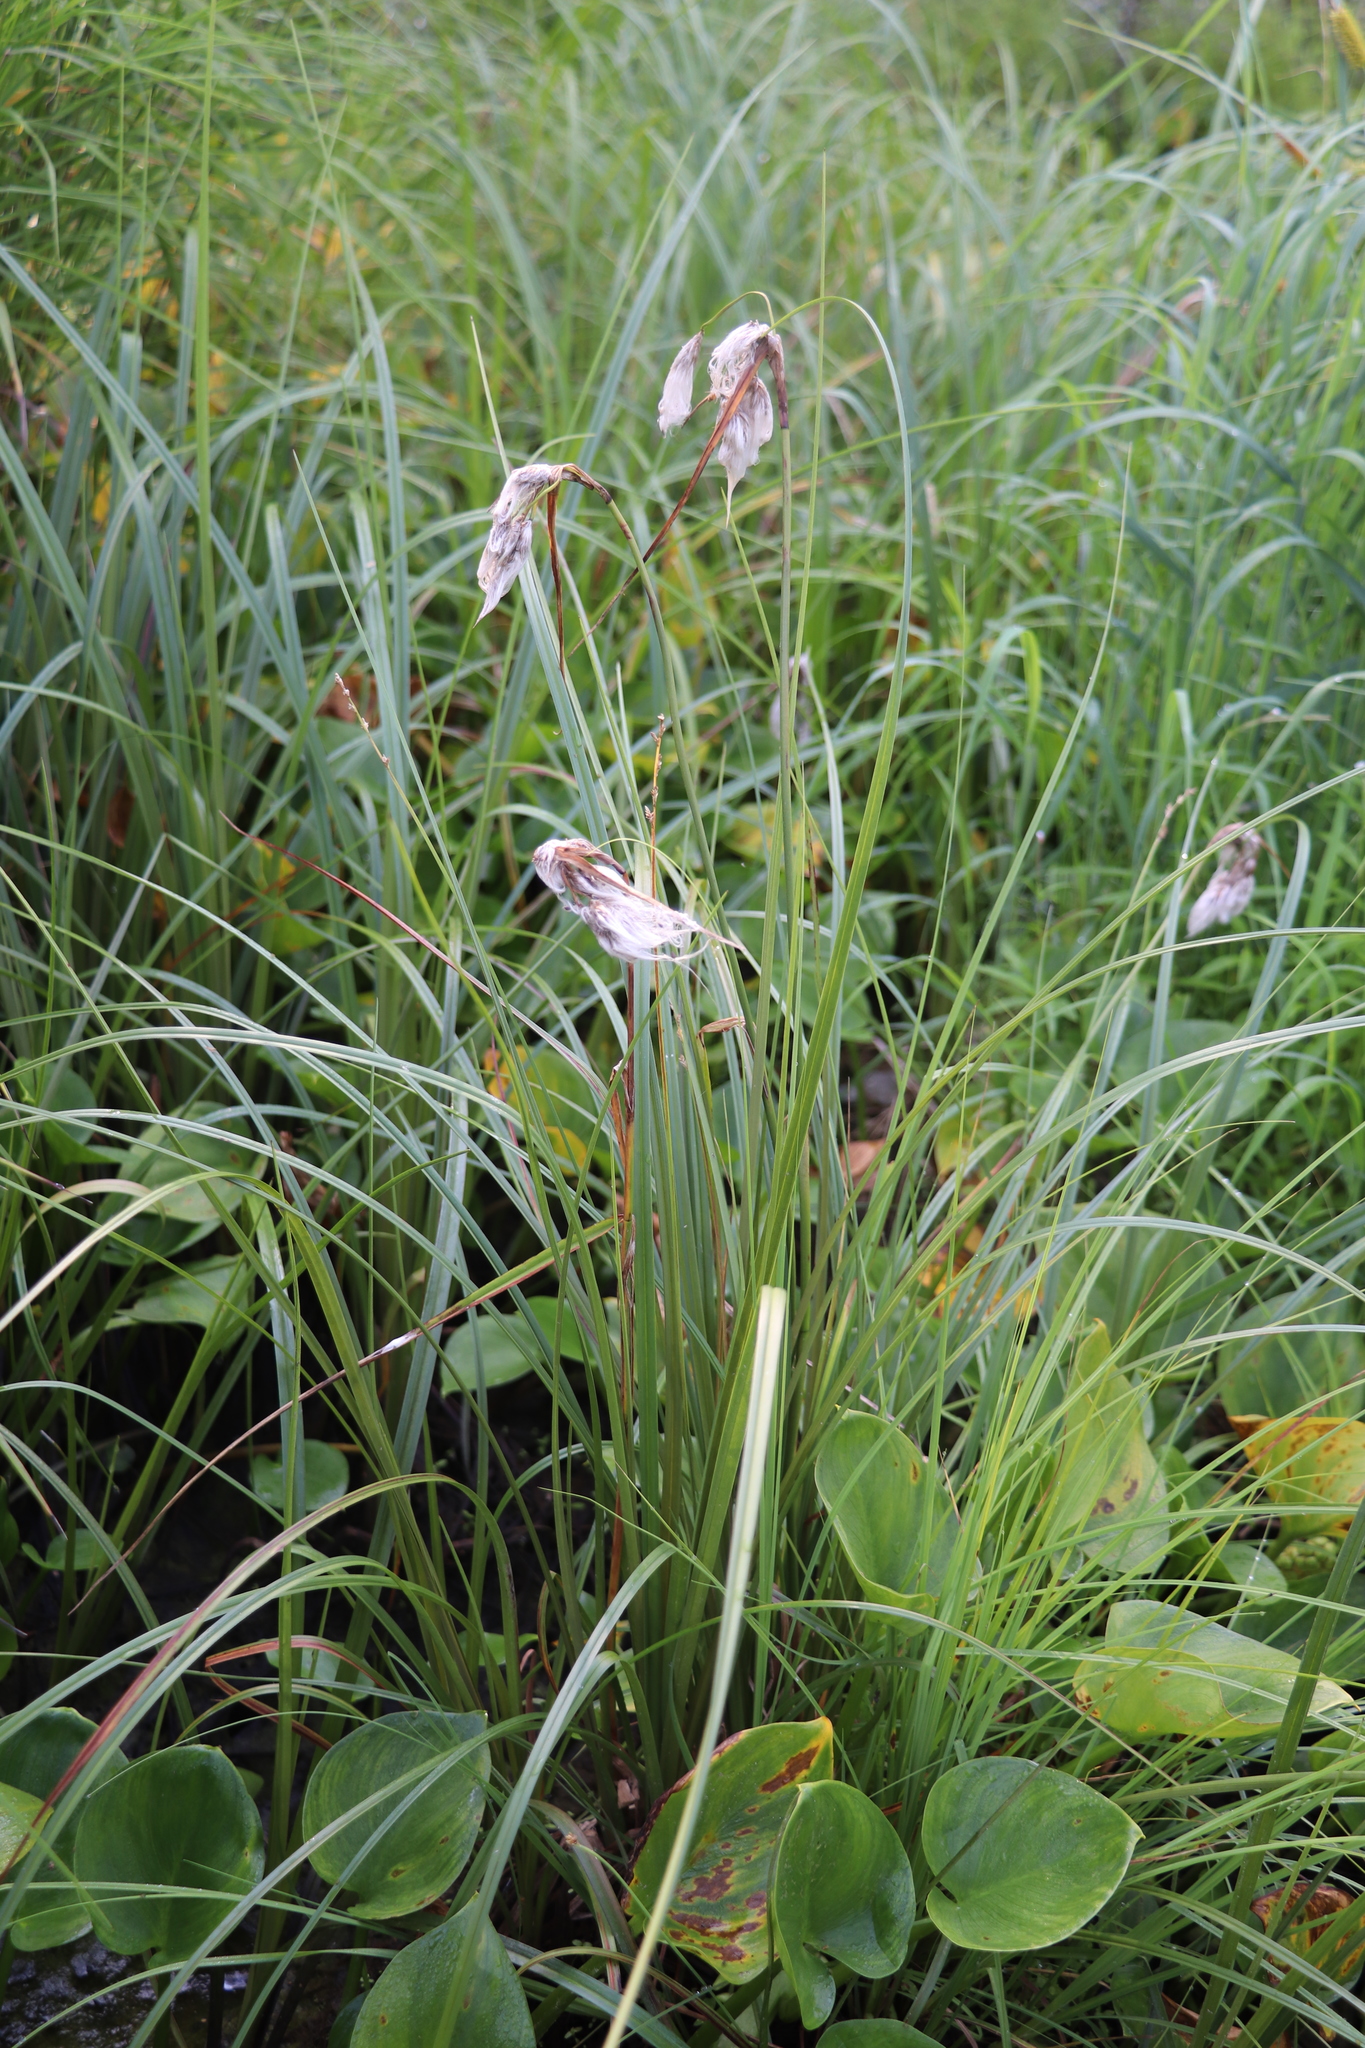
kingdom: Plantae
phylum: Tracheophyta
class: Liliopsida
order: Poales
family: Cyperaceae
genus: Eriophorum
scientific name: Eriophorum angustifolium
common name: Common cottongrass
